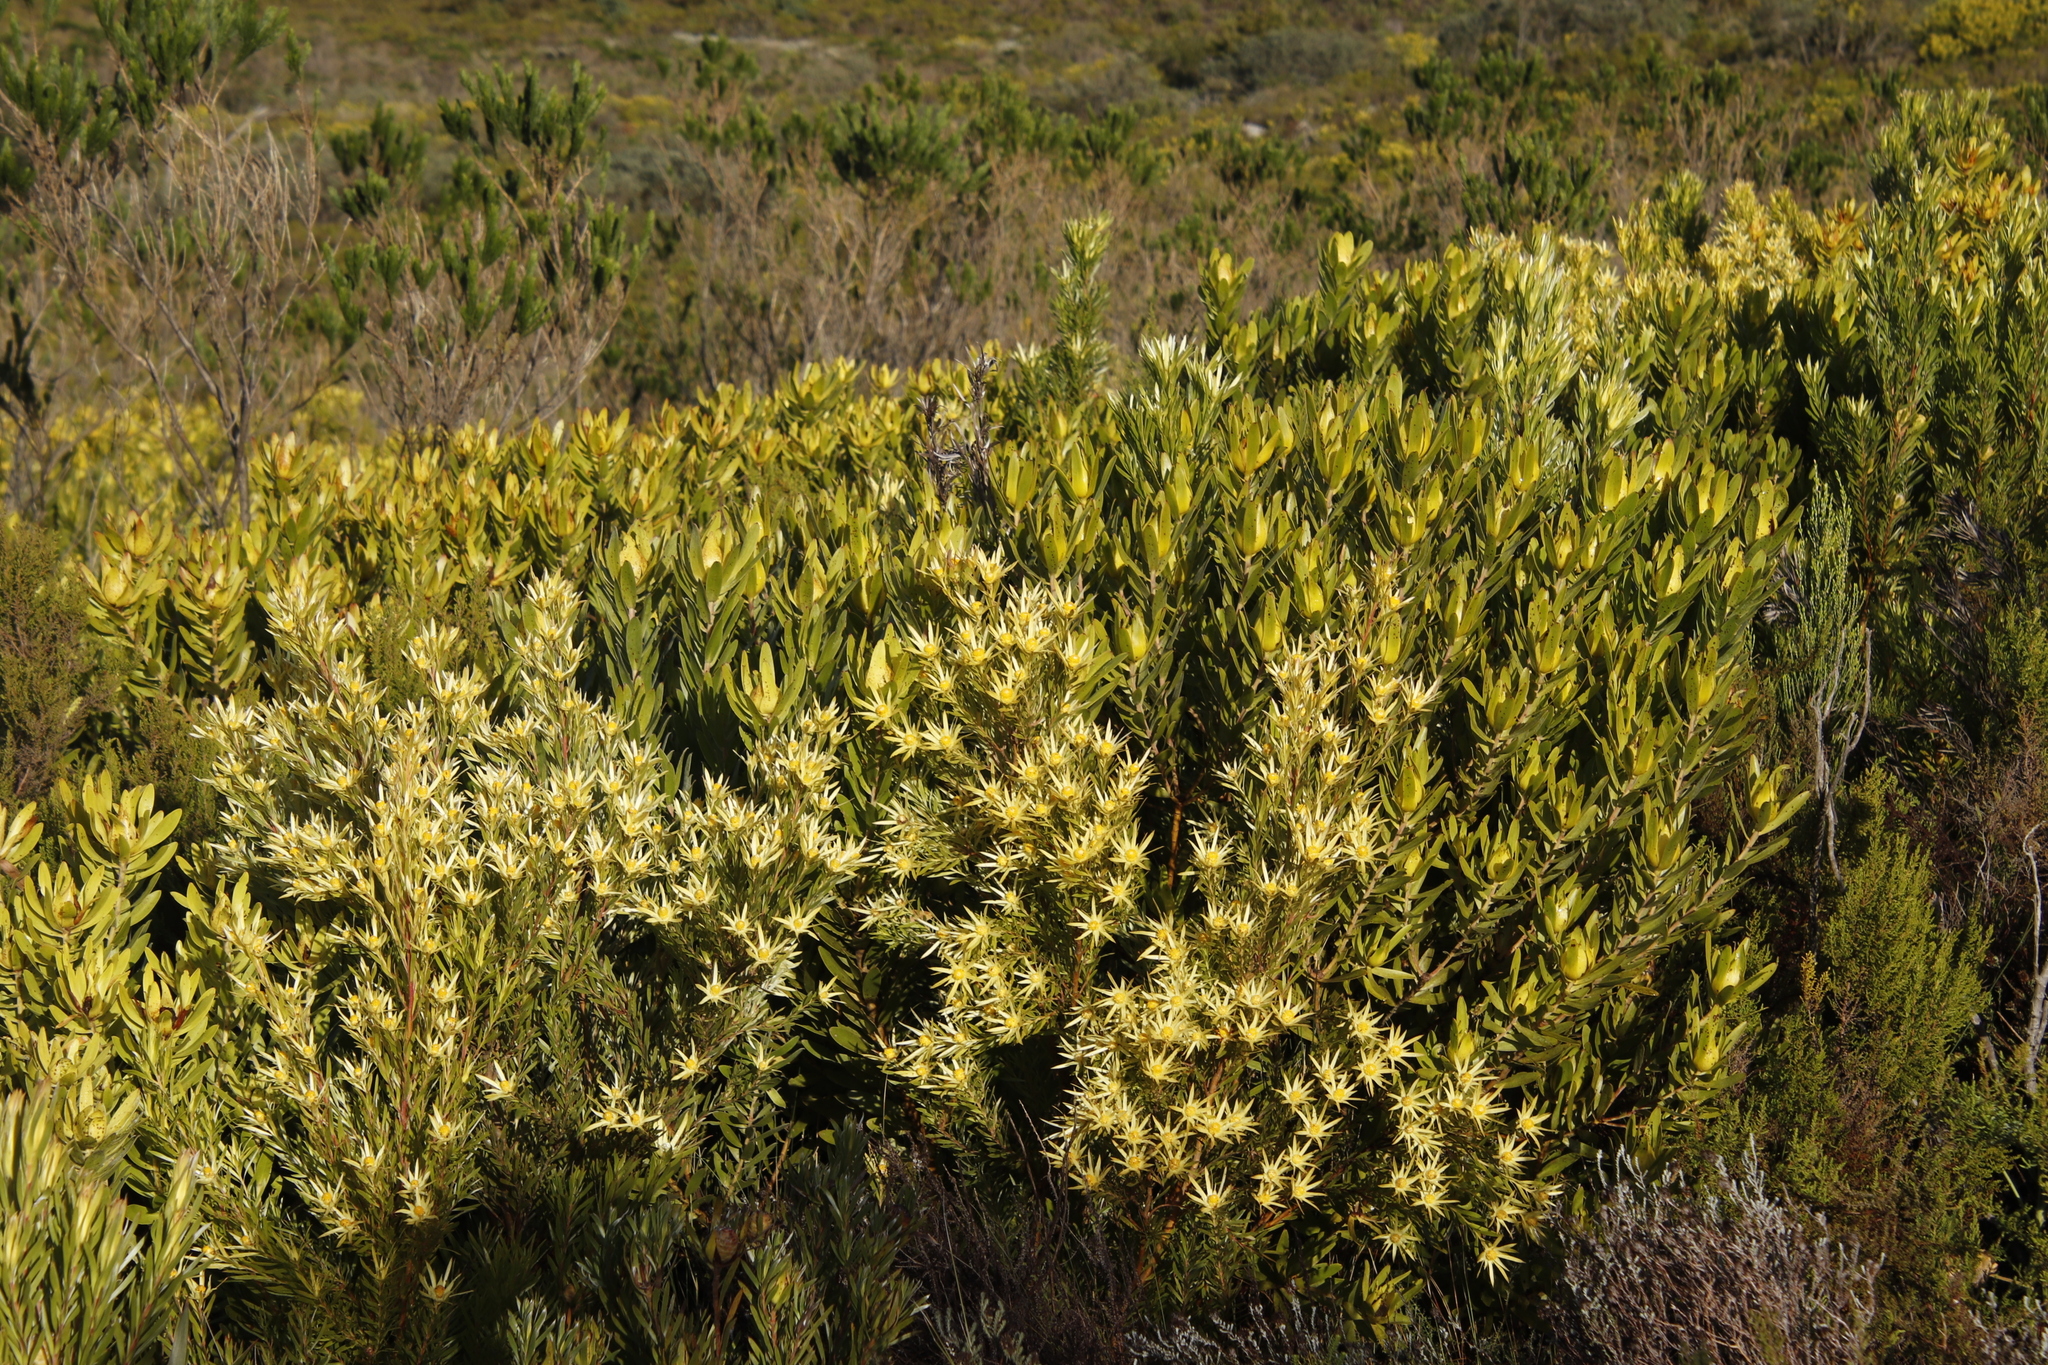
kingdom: Plantae
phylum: Tracheophyta
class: Magnoliopsida
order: Proteales
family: Proteaceae
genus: Leucadendron
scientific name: Leucadendron laureolum
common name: Golden sunshinebush
